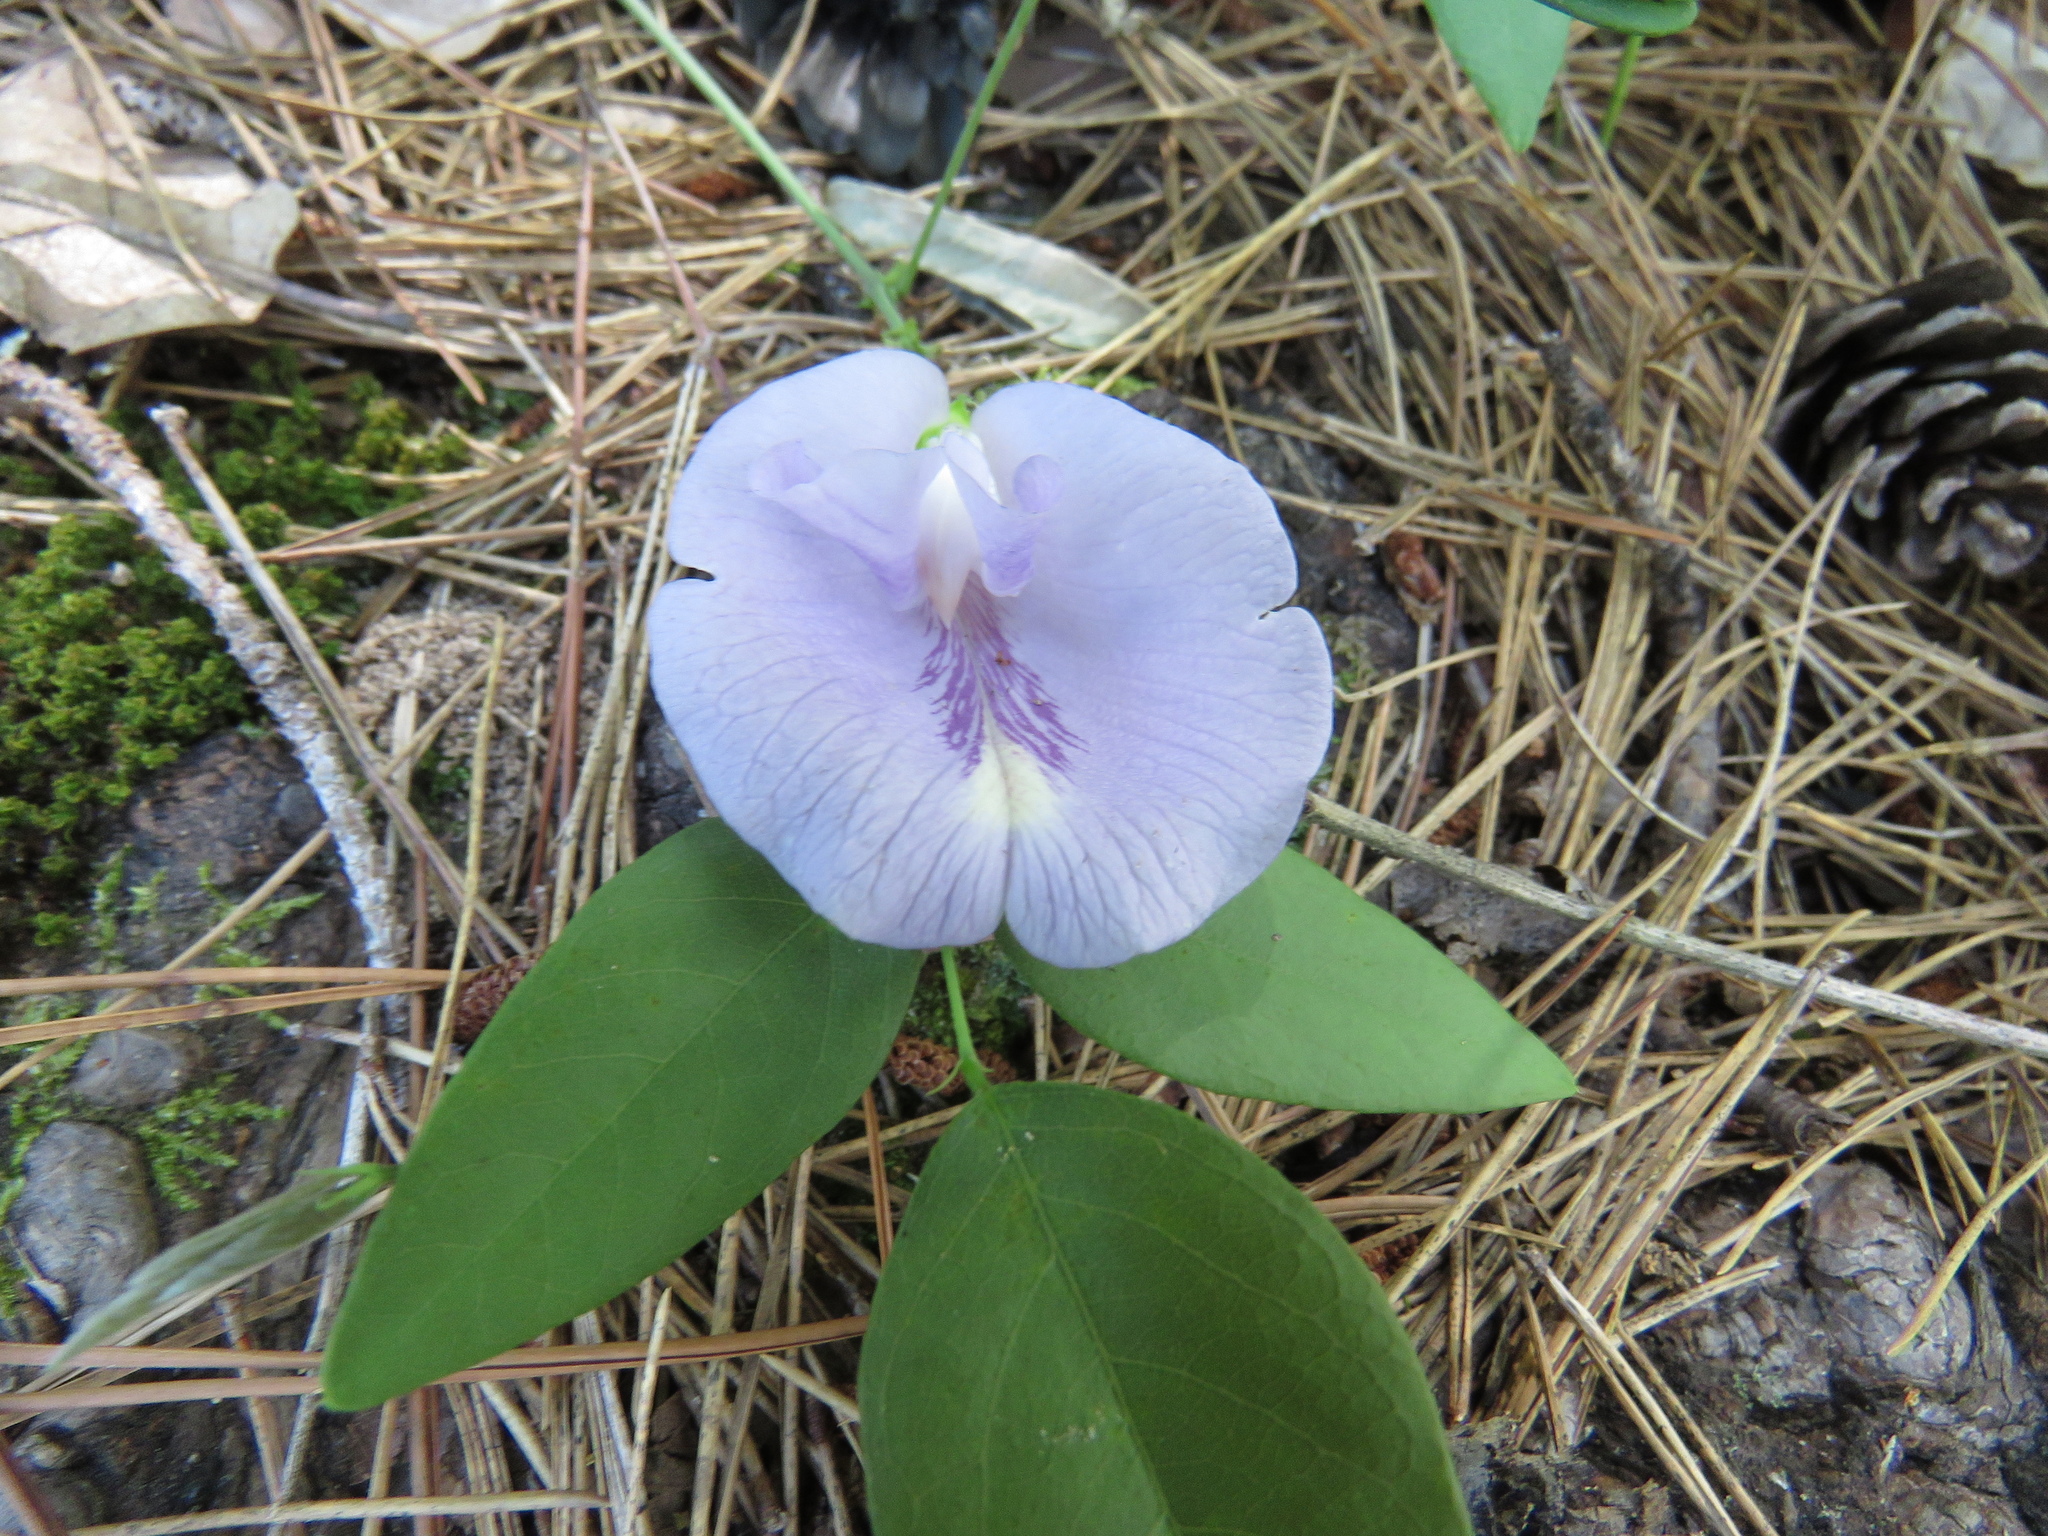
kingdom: Plantae
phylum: Tracheophyta
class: Magnoliopsida
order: Fabales
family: Fabaceae
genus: Clitoria
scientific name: Clitoria mariana
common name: Butterfly-pea
